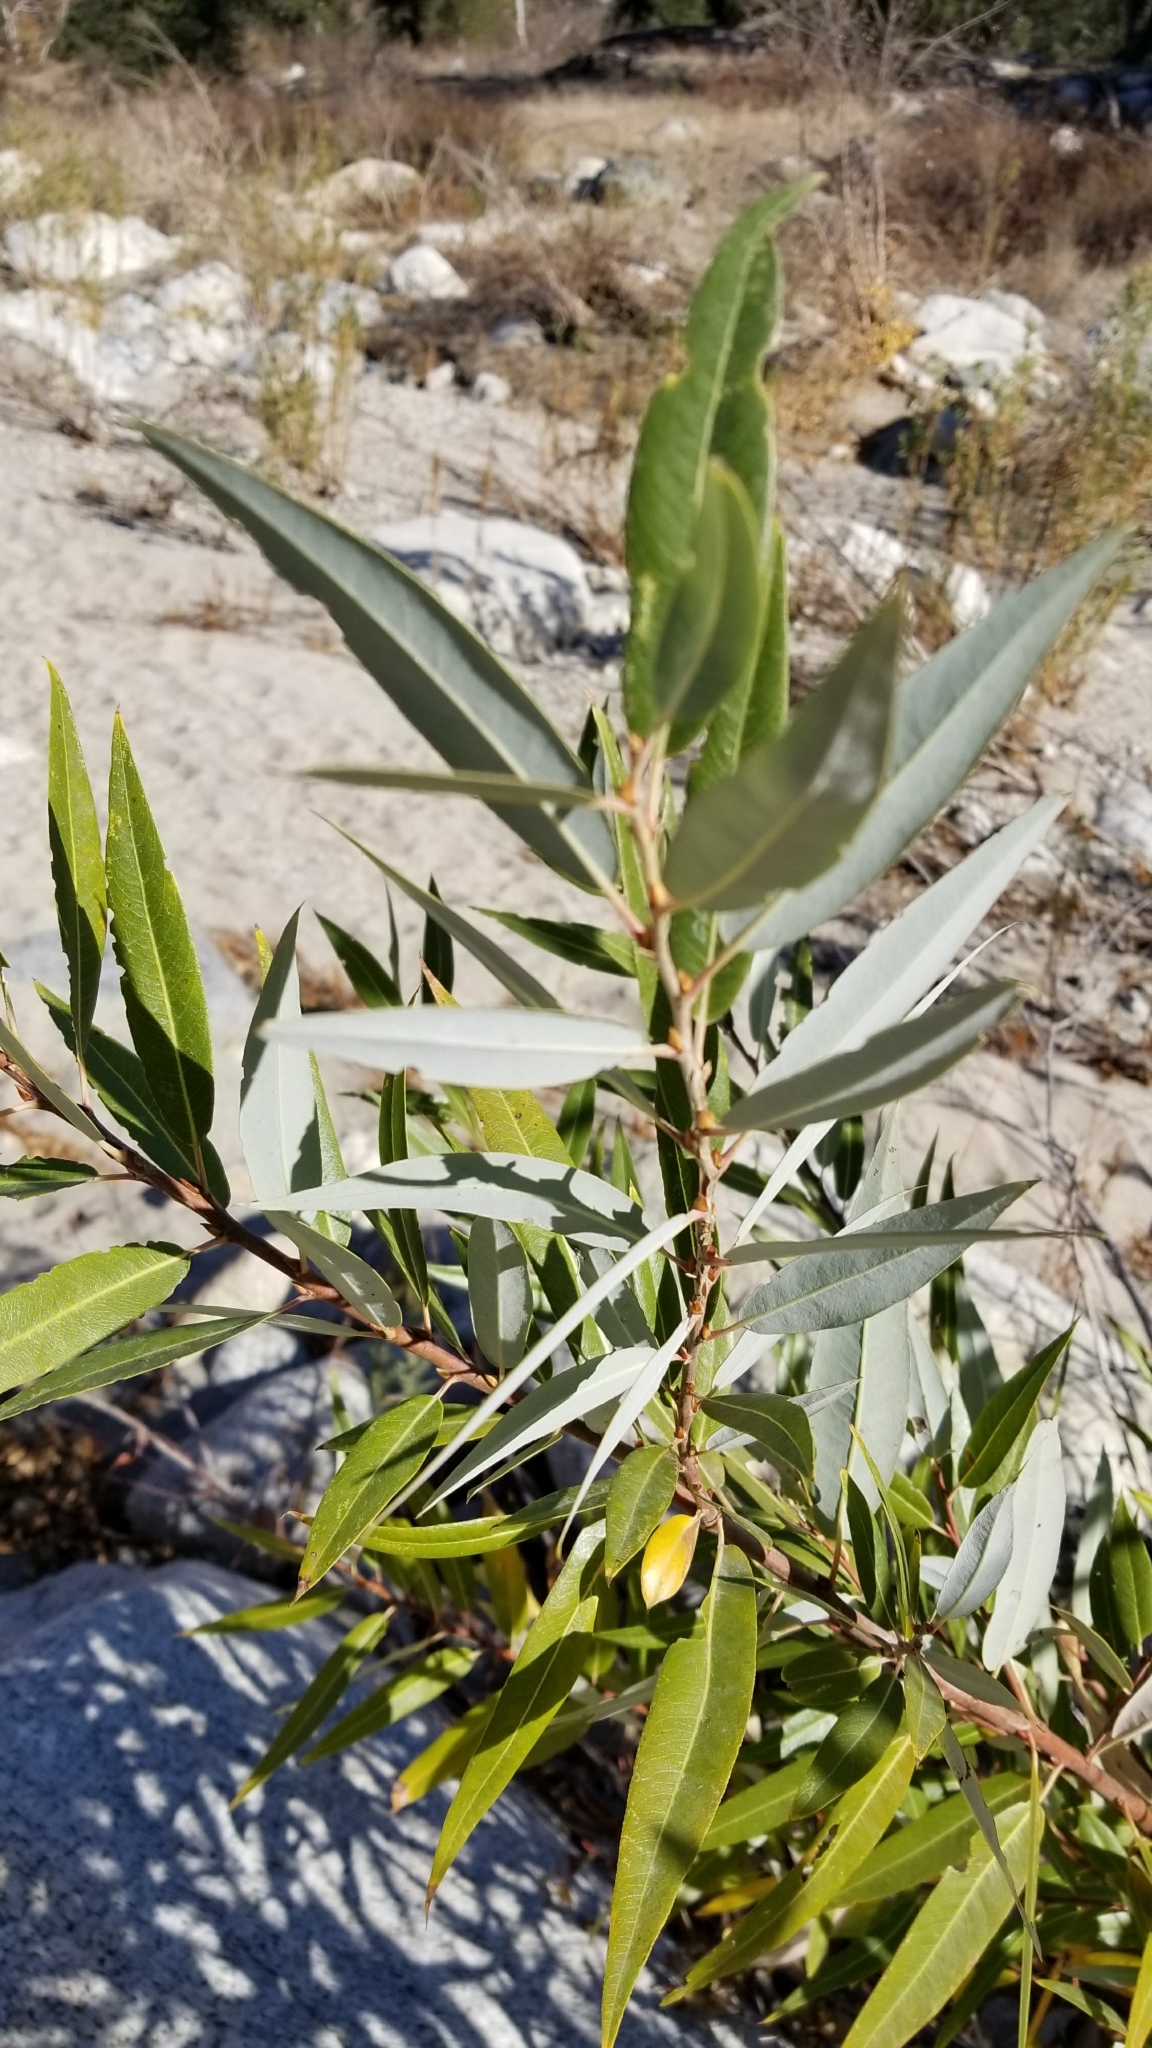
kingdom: Plantae
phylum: Tracheophyta
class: Magnoliopsida
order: Malpighiales
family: Salicaceae
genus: Salix
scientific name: Salix laevigata
